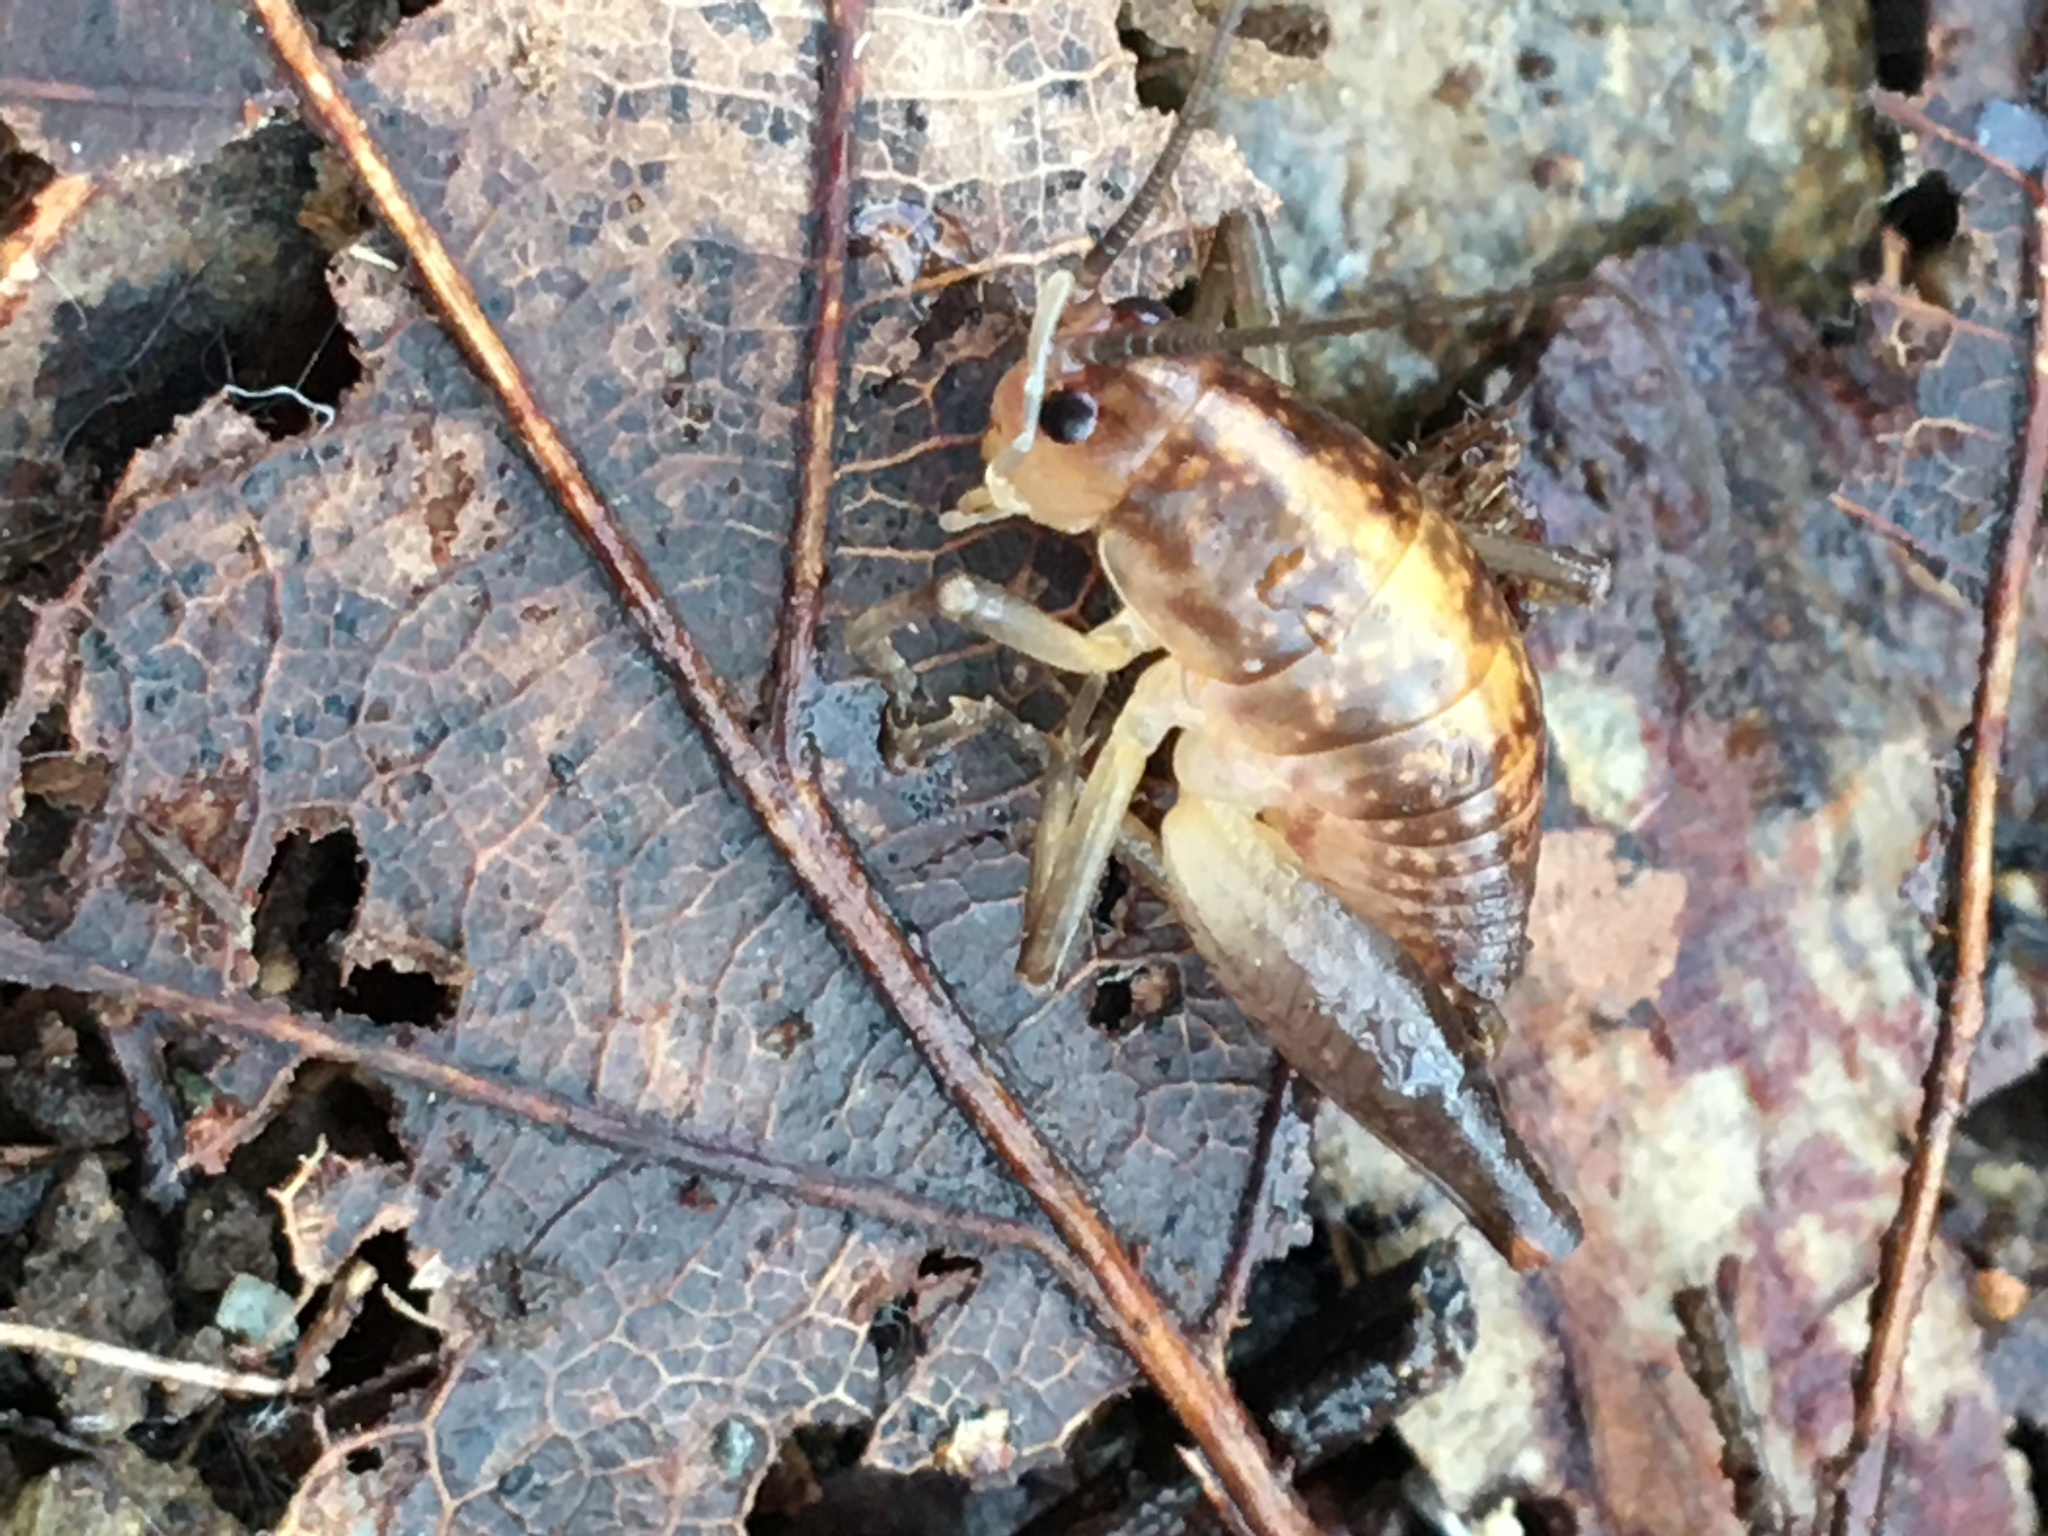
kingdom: Animalia
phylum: Arthropoda
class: Insecta
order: Orthoptera
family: Rhaphidophoridae
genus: Ceuthophilus
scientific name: Ceuthophilus
